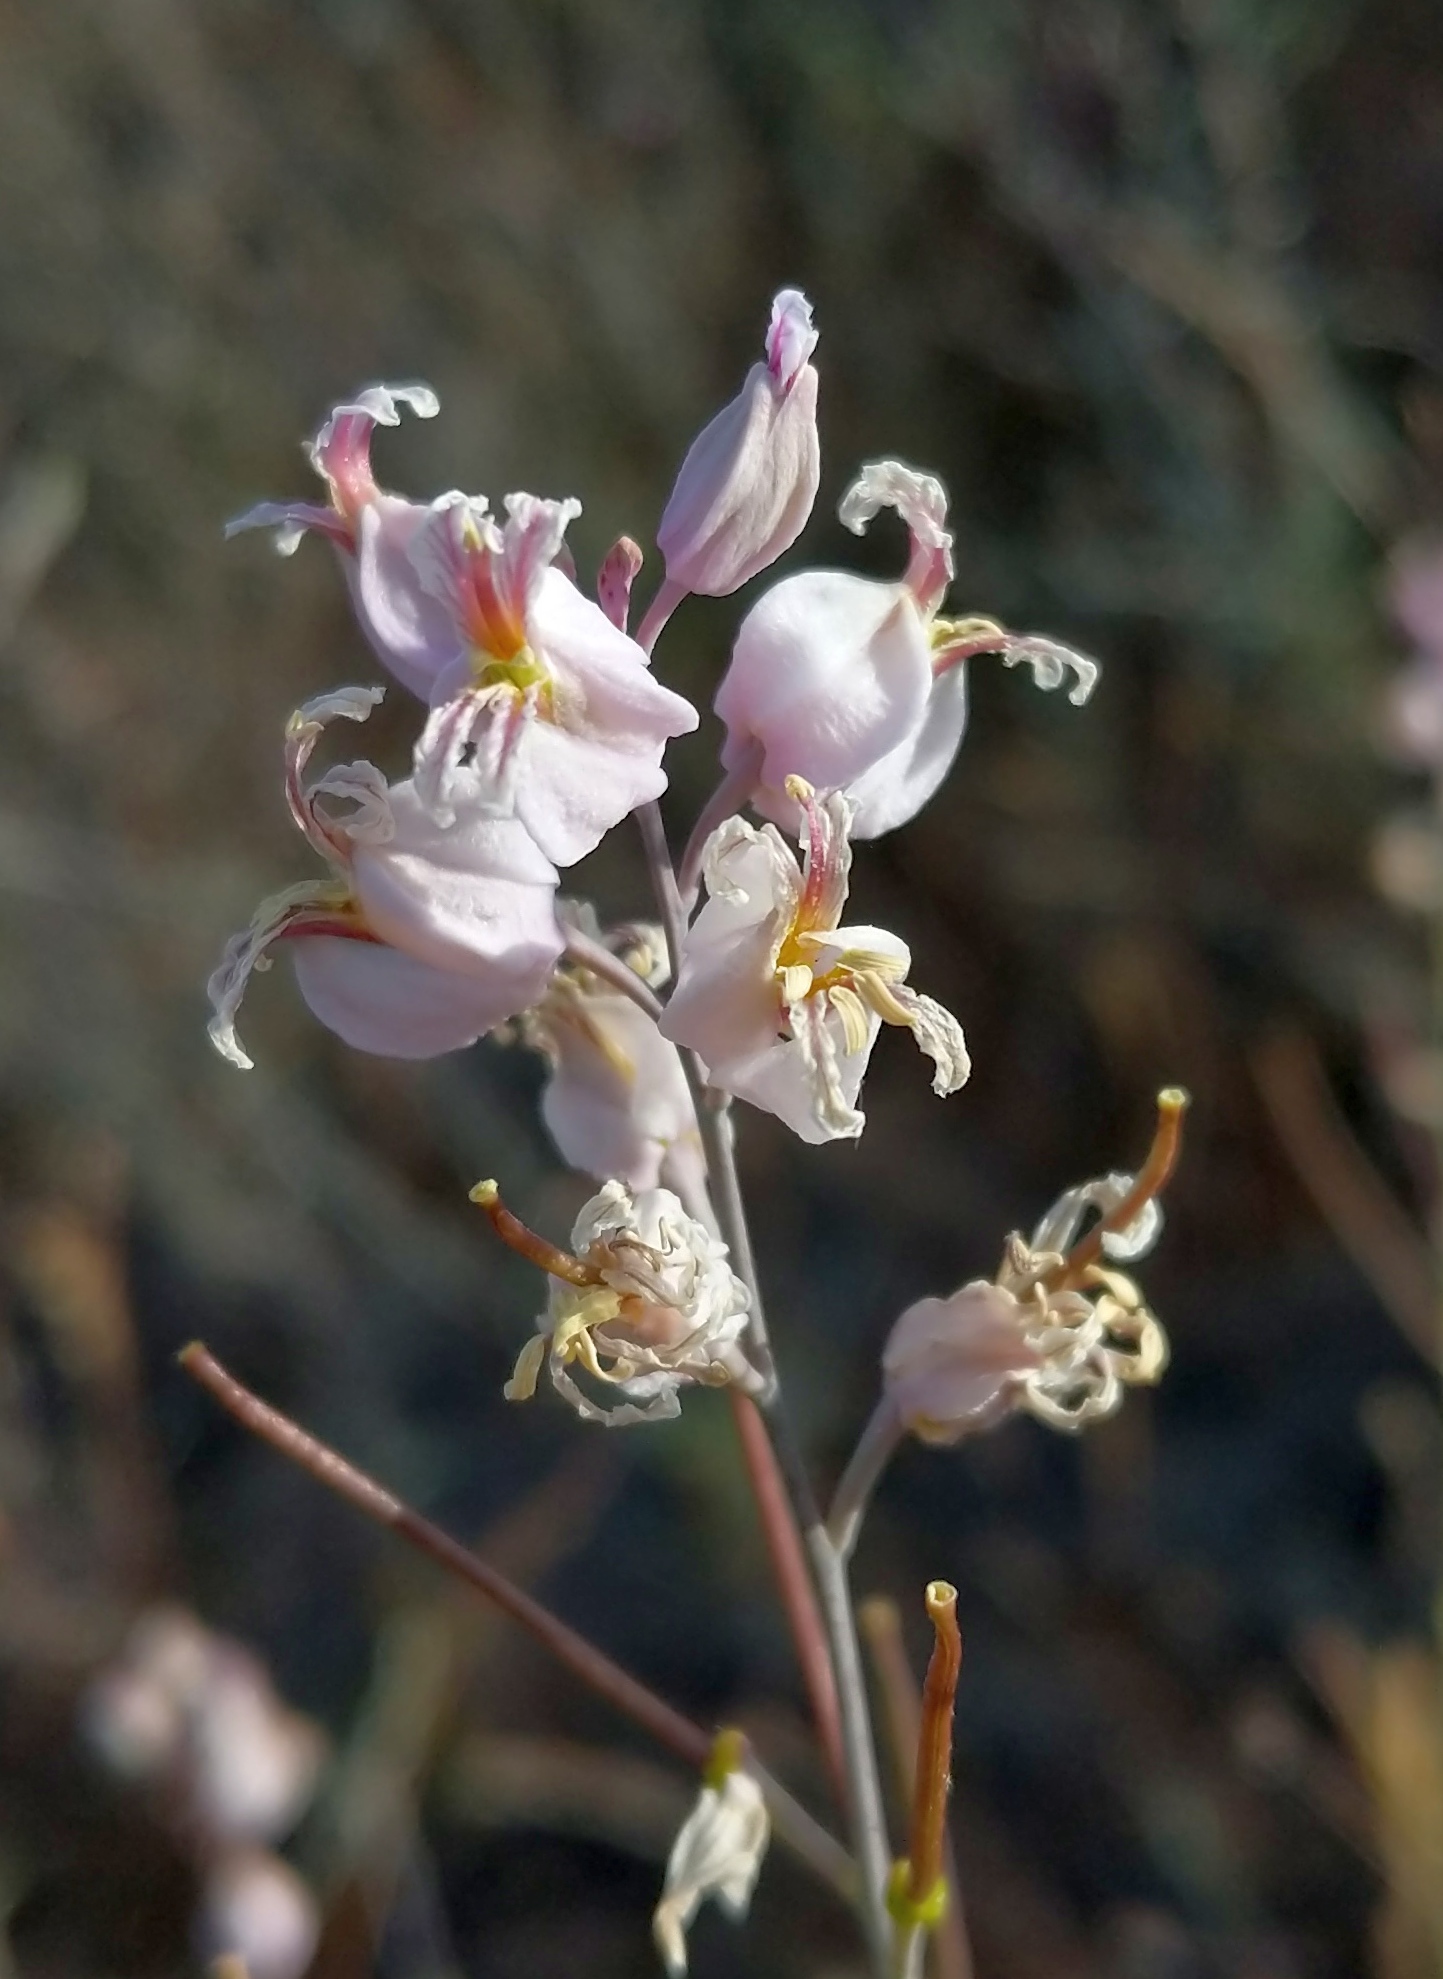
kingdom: Plantae
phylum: Tracheophyta
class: Magnoliopsida
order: Brassicales
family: Brassicaceae
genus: Streptanthus
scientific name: Streptanthus glandulosus
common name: Jewel-flower
